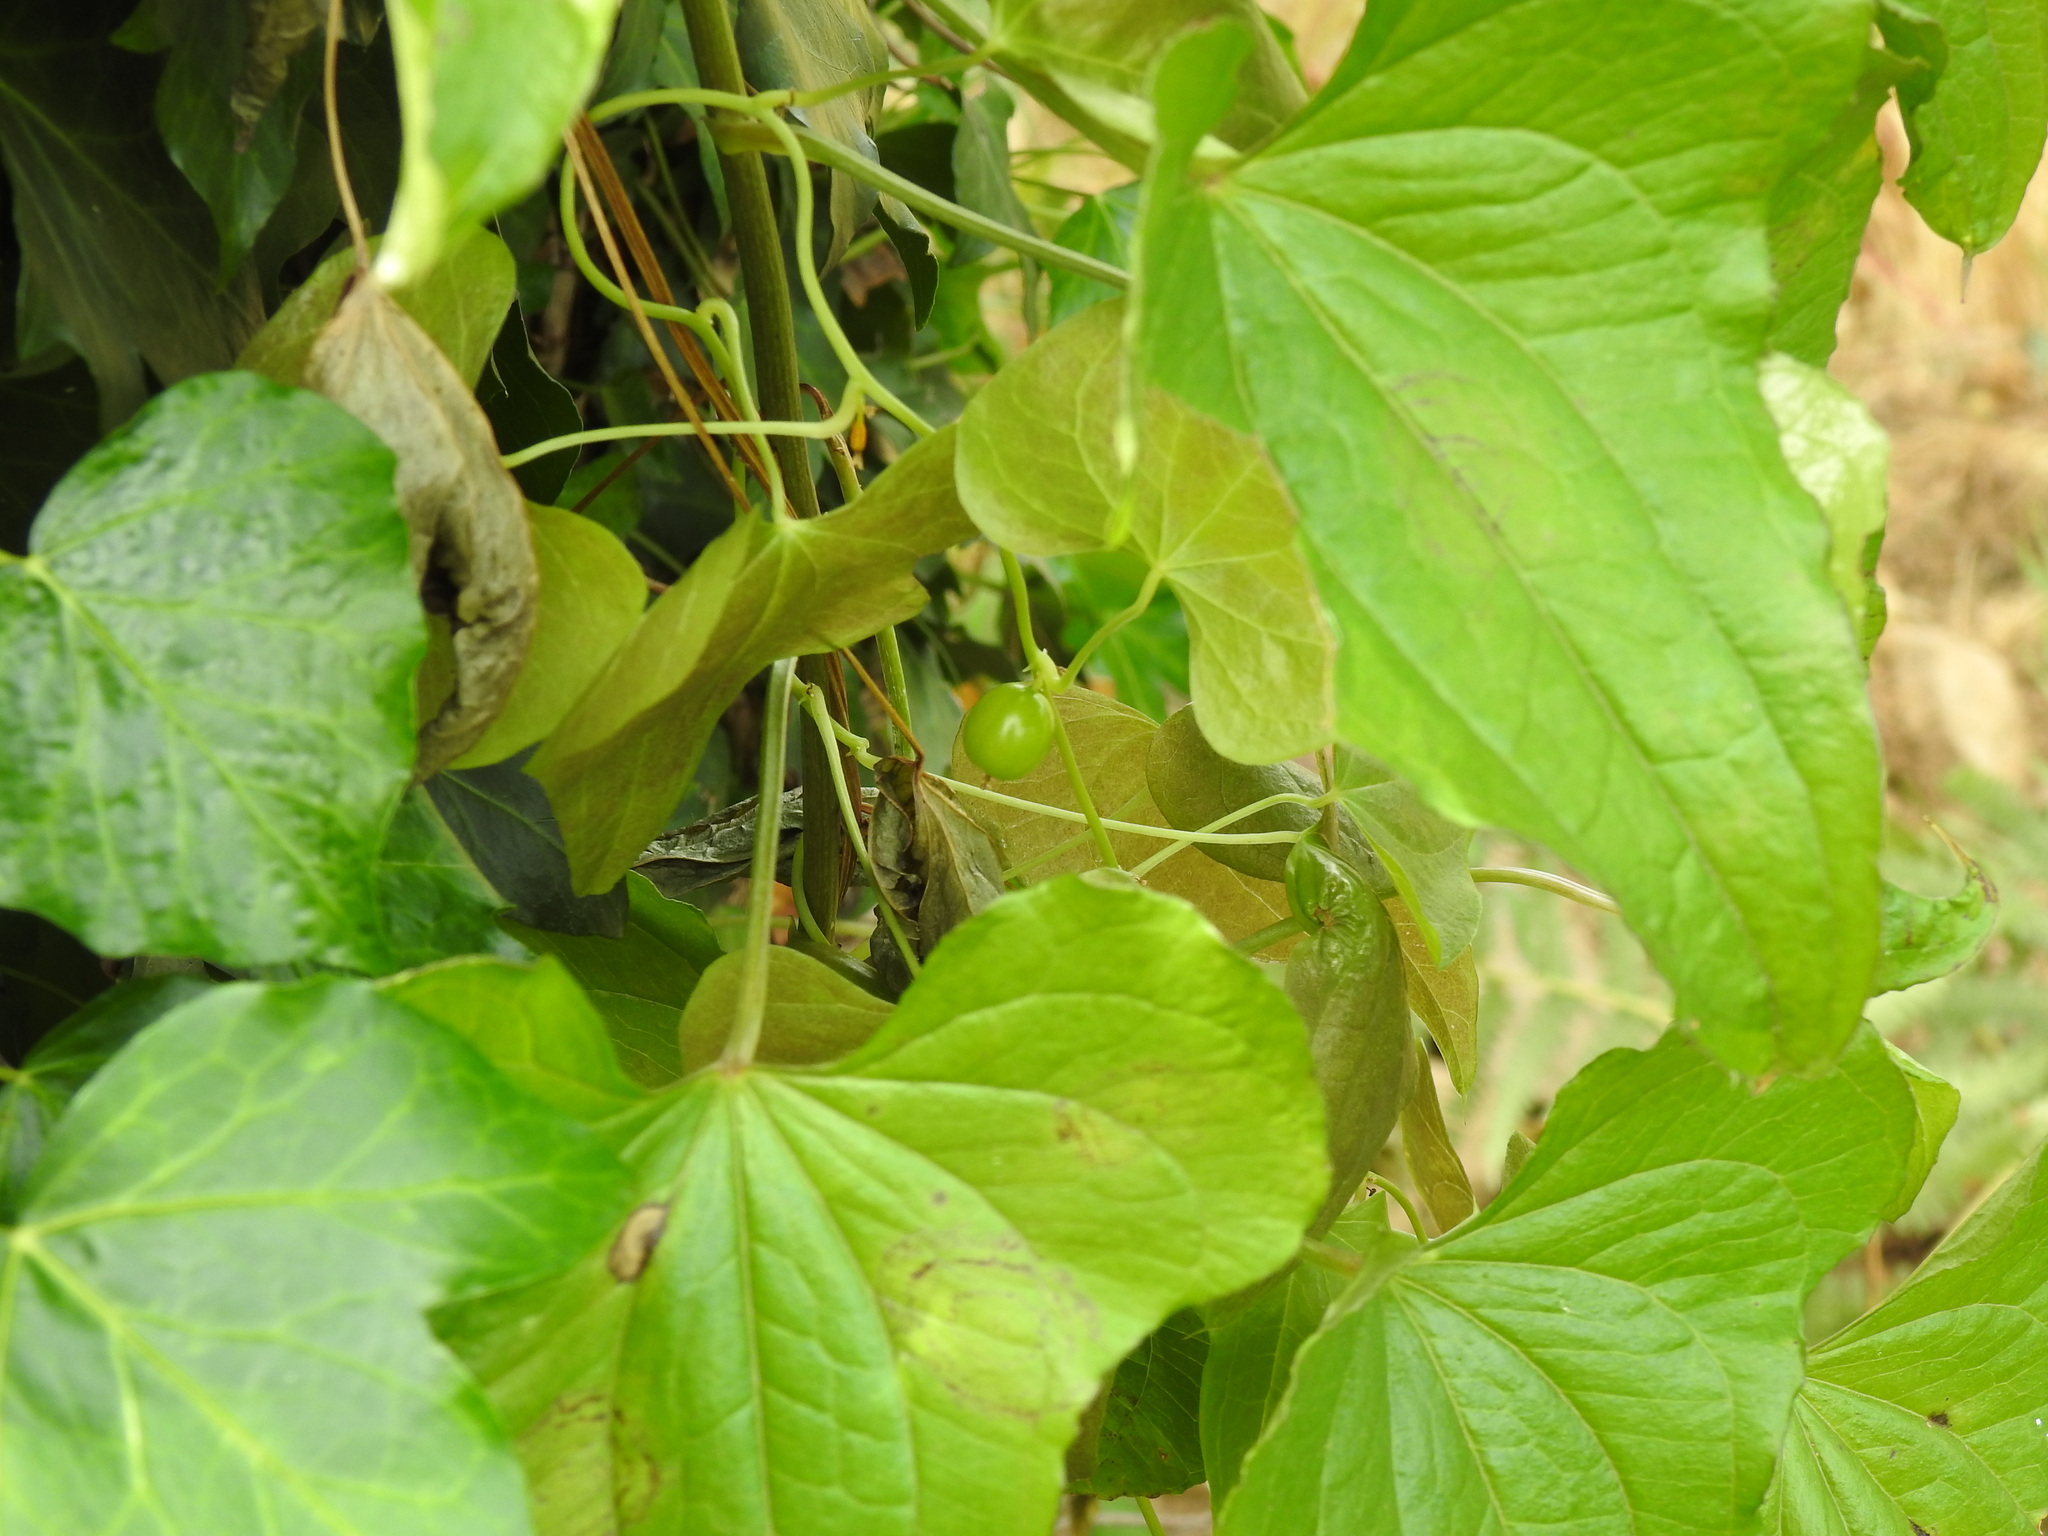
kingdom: Plantae
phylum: Tracheophyta
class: Liliopsida
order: Dioscoreales
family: Dioscoreaceae
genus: Dioscorea
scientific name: Dioscorea communis
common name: Black-bindweed
